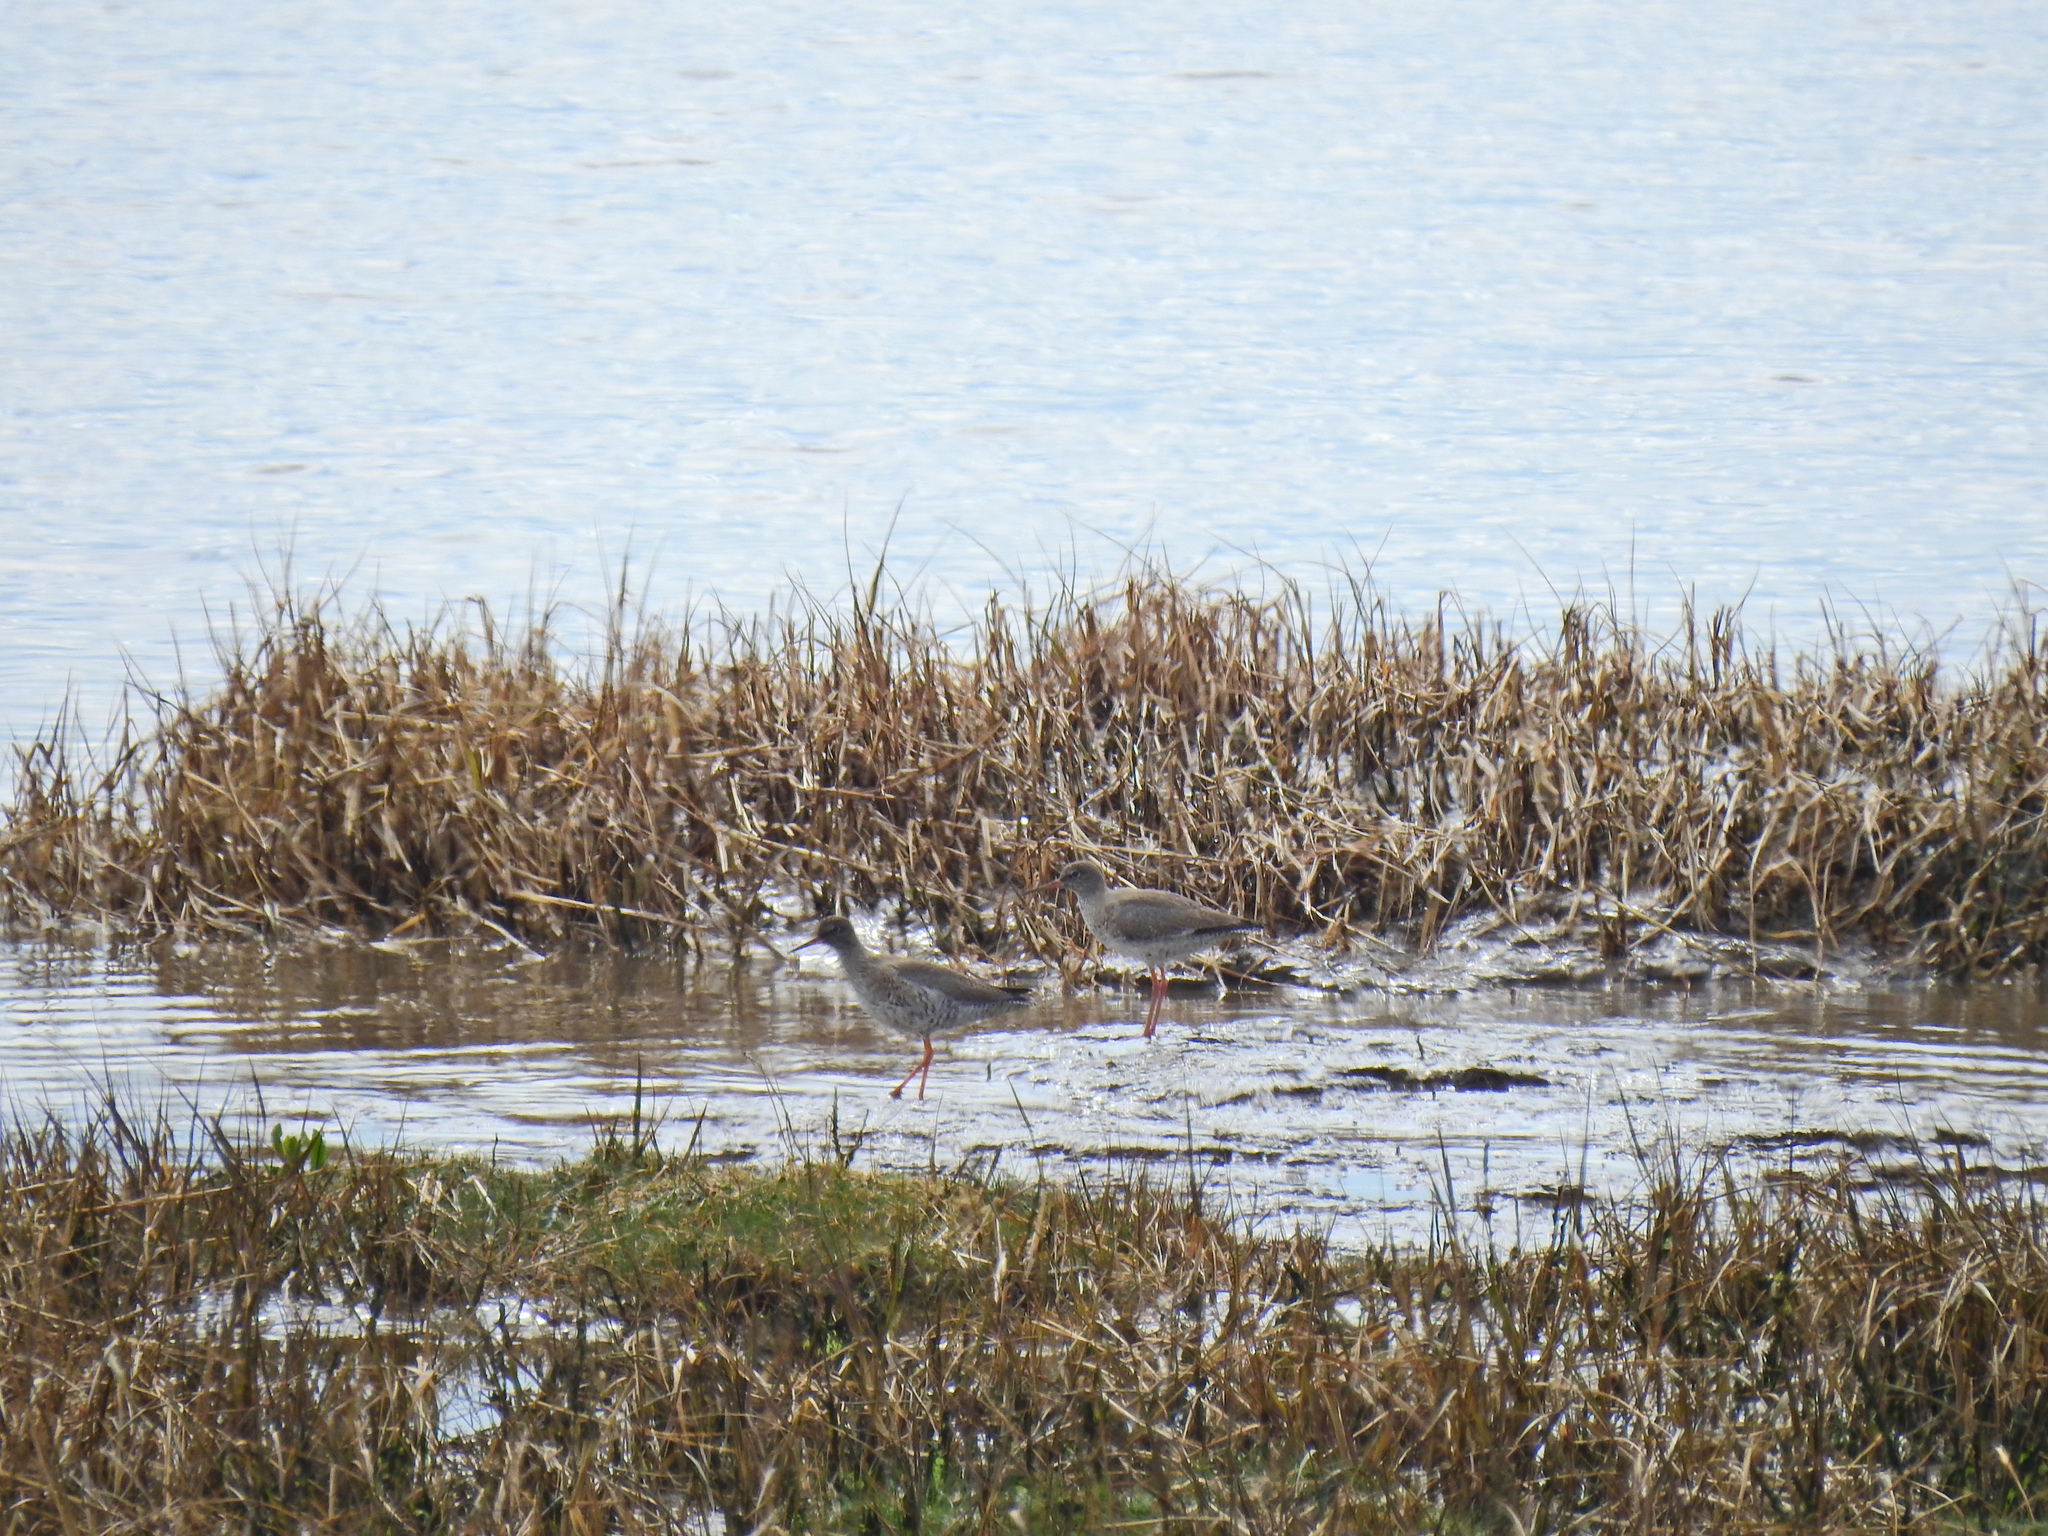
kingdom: Animalia
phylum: Chordata
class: Aves
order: Charadriiformes
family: Scolopacidae
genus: Tringa
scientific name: Tringa totanus
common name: Common redshank
